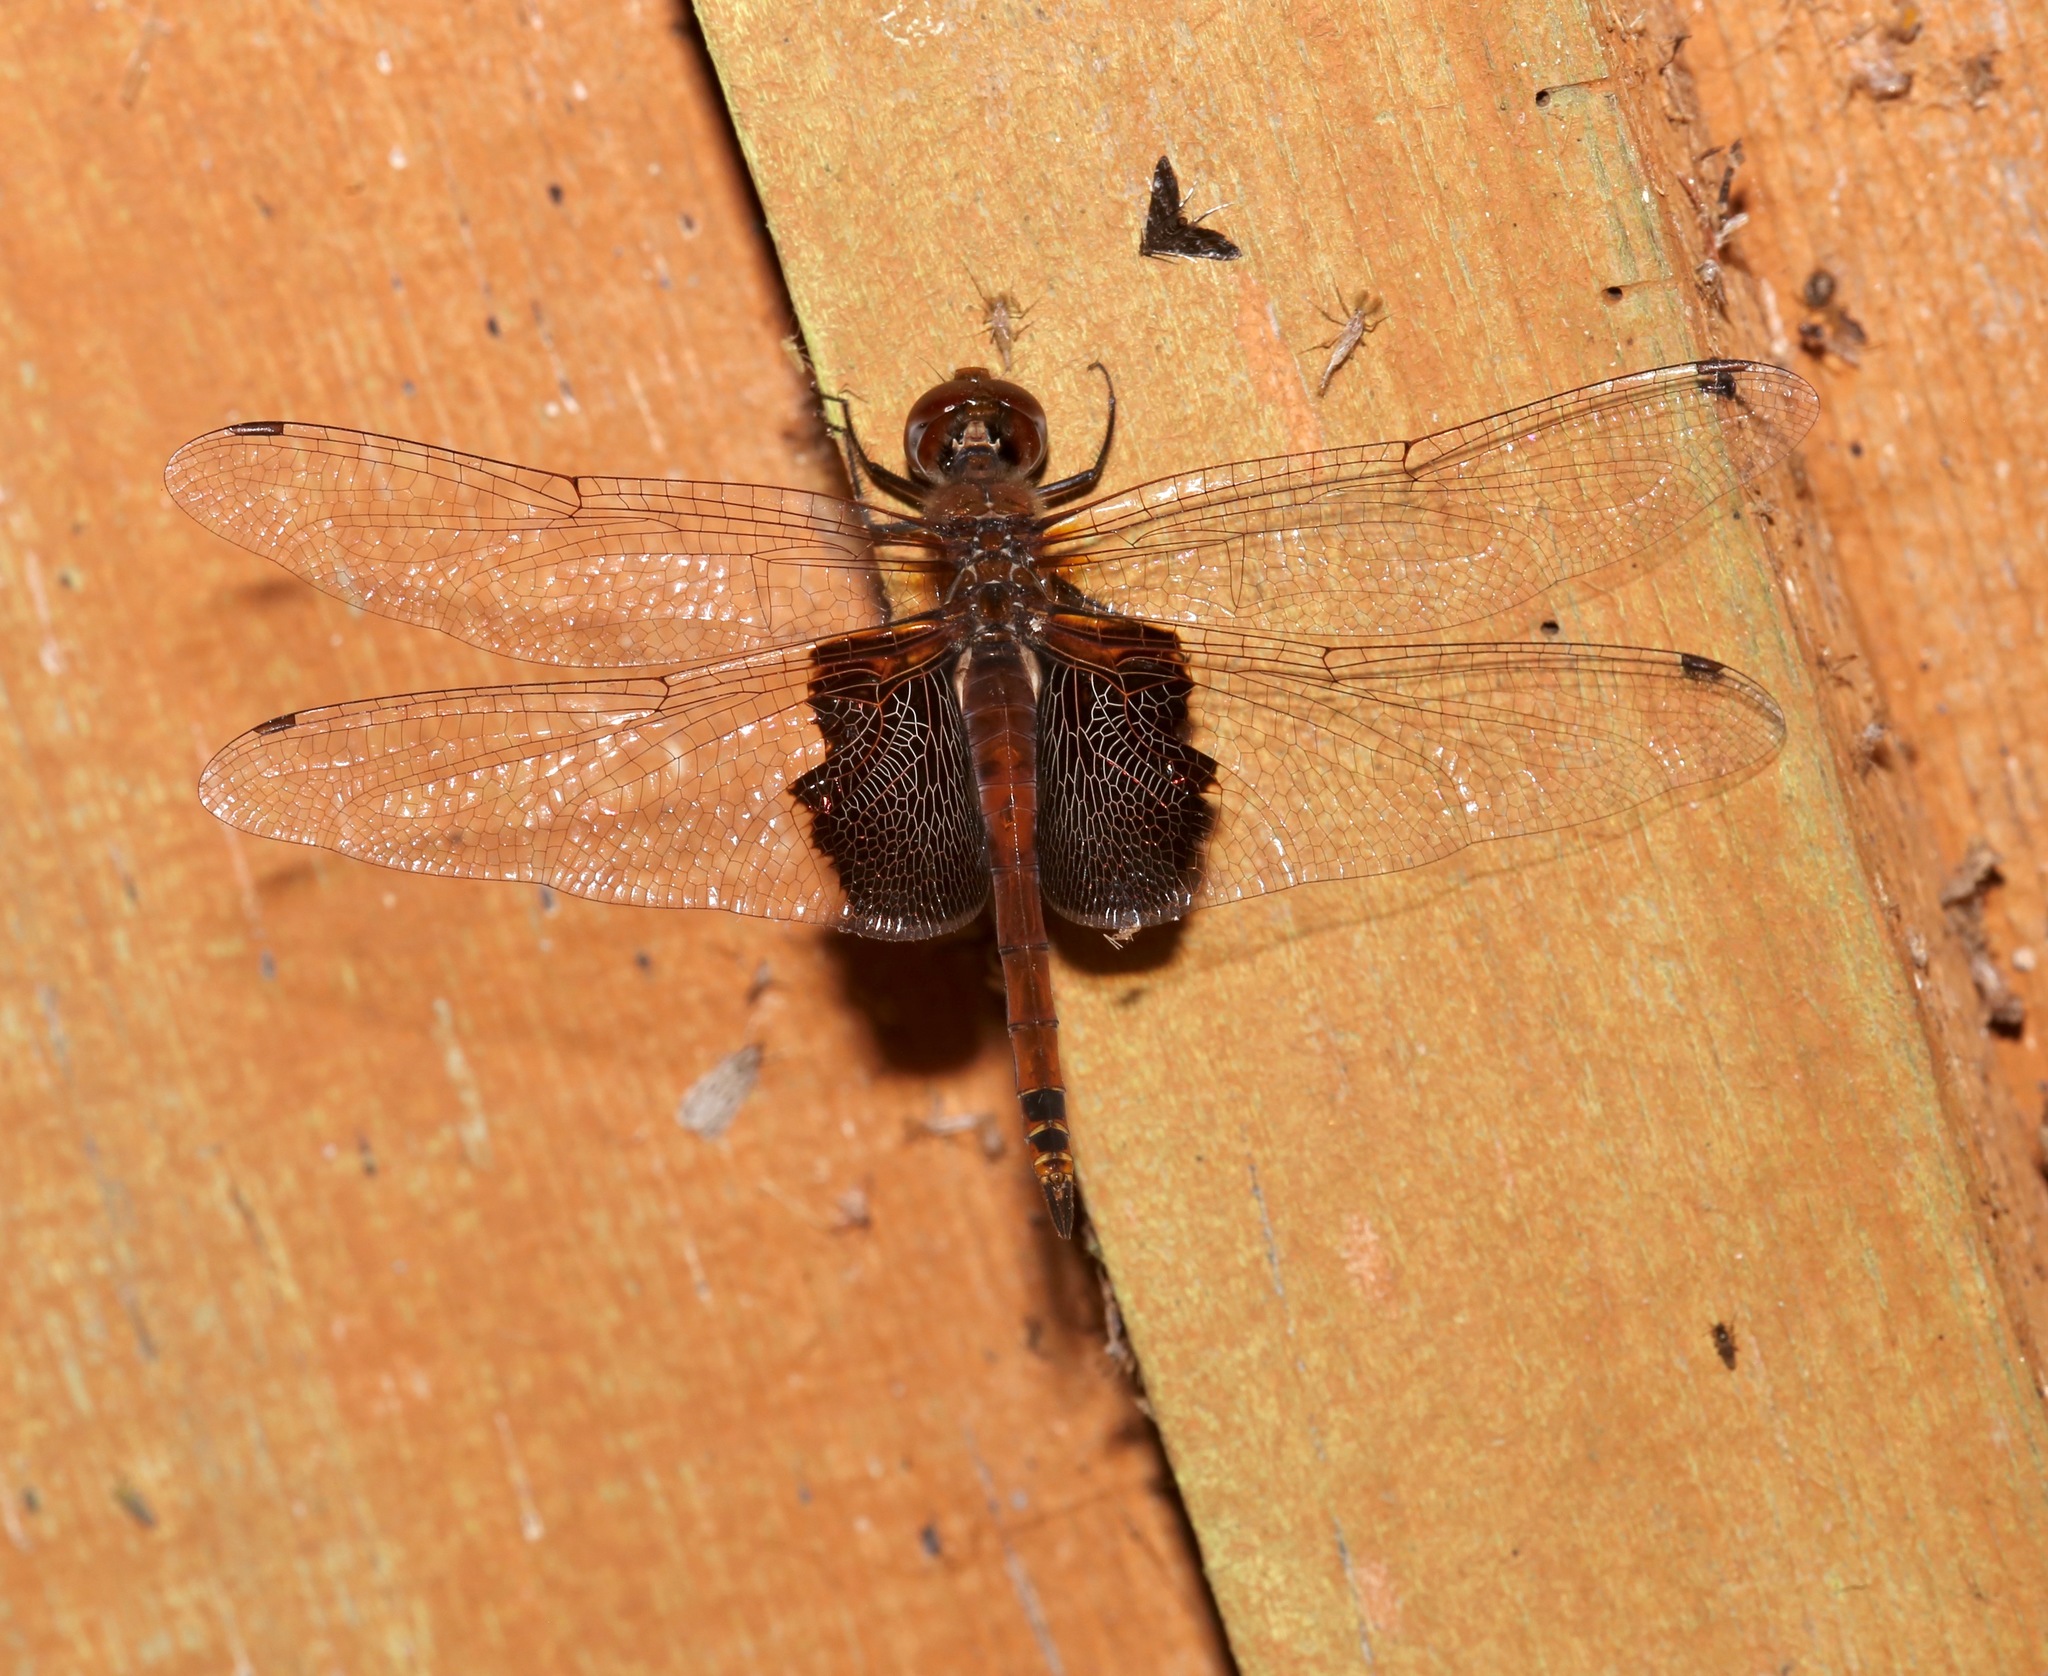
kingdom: Animalia
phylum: Arthropoda
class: Insecta
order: Odonata
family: Libellulidae
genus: Tramea
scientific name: Tramea carolina
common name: Carolina saddlebags
